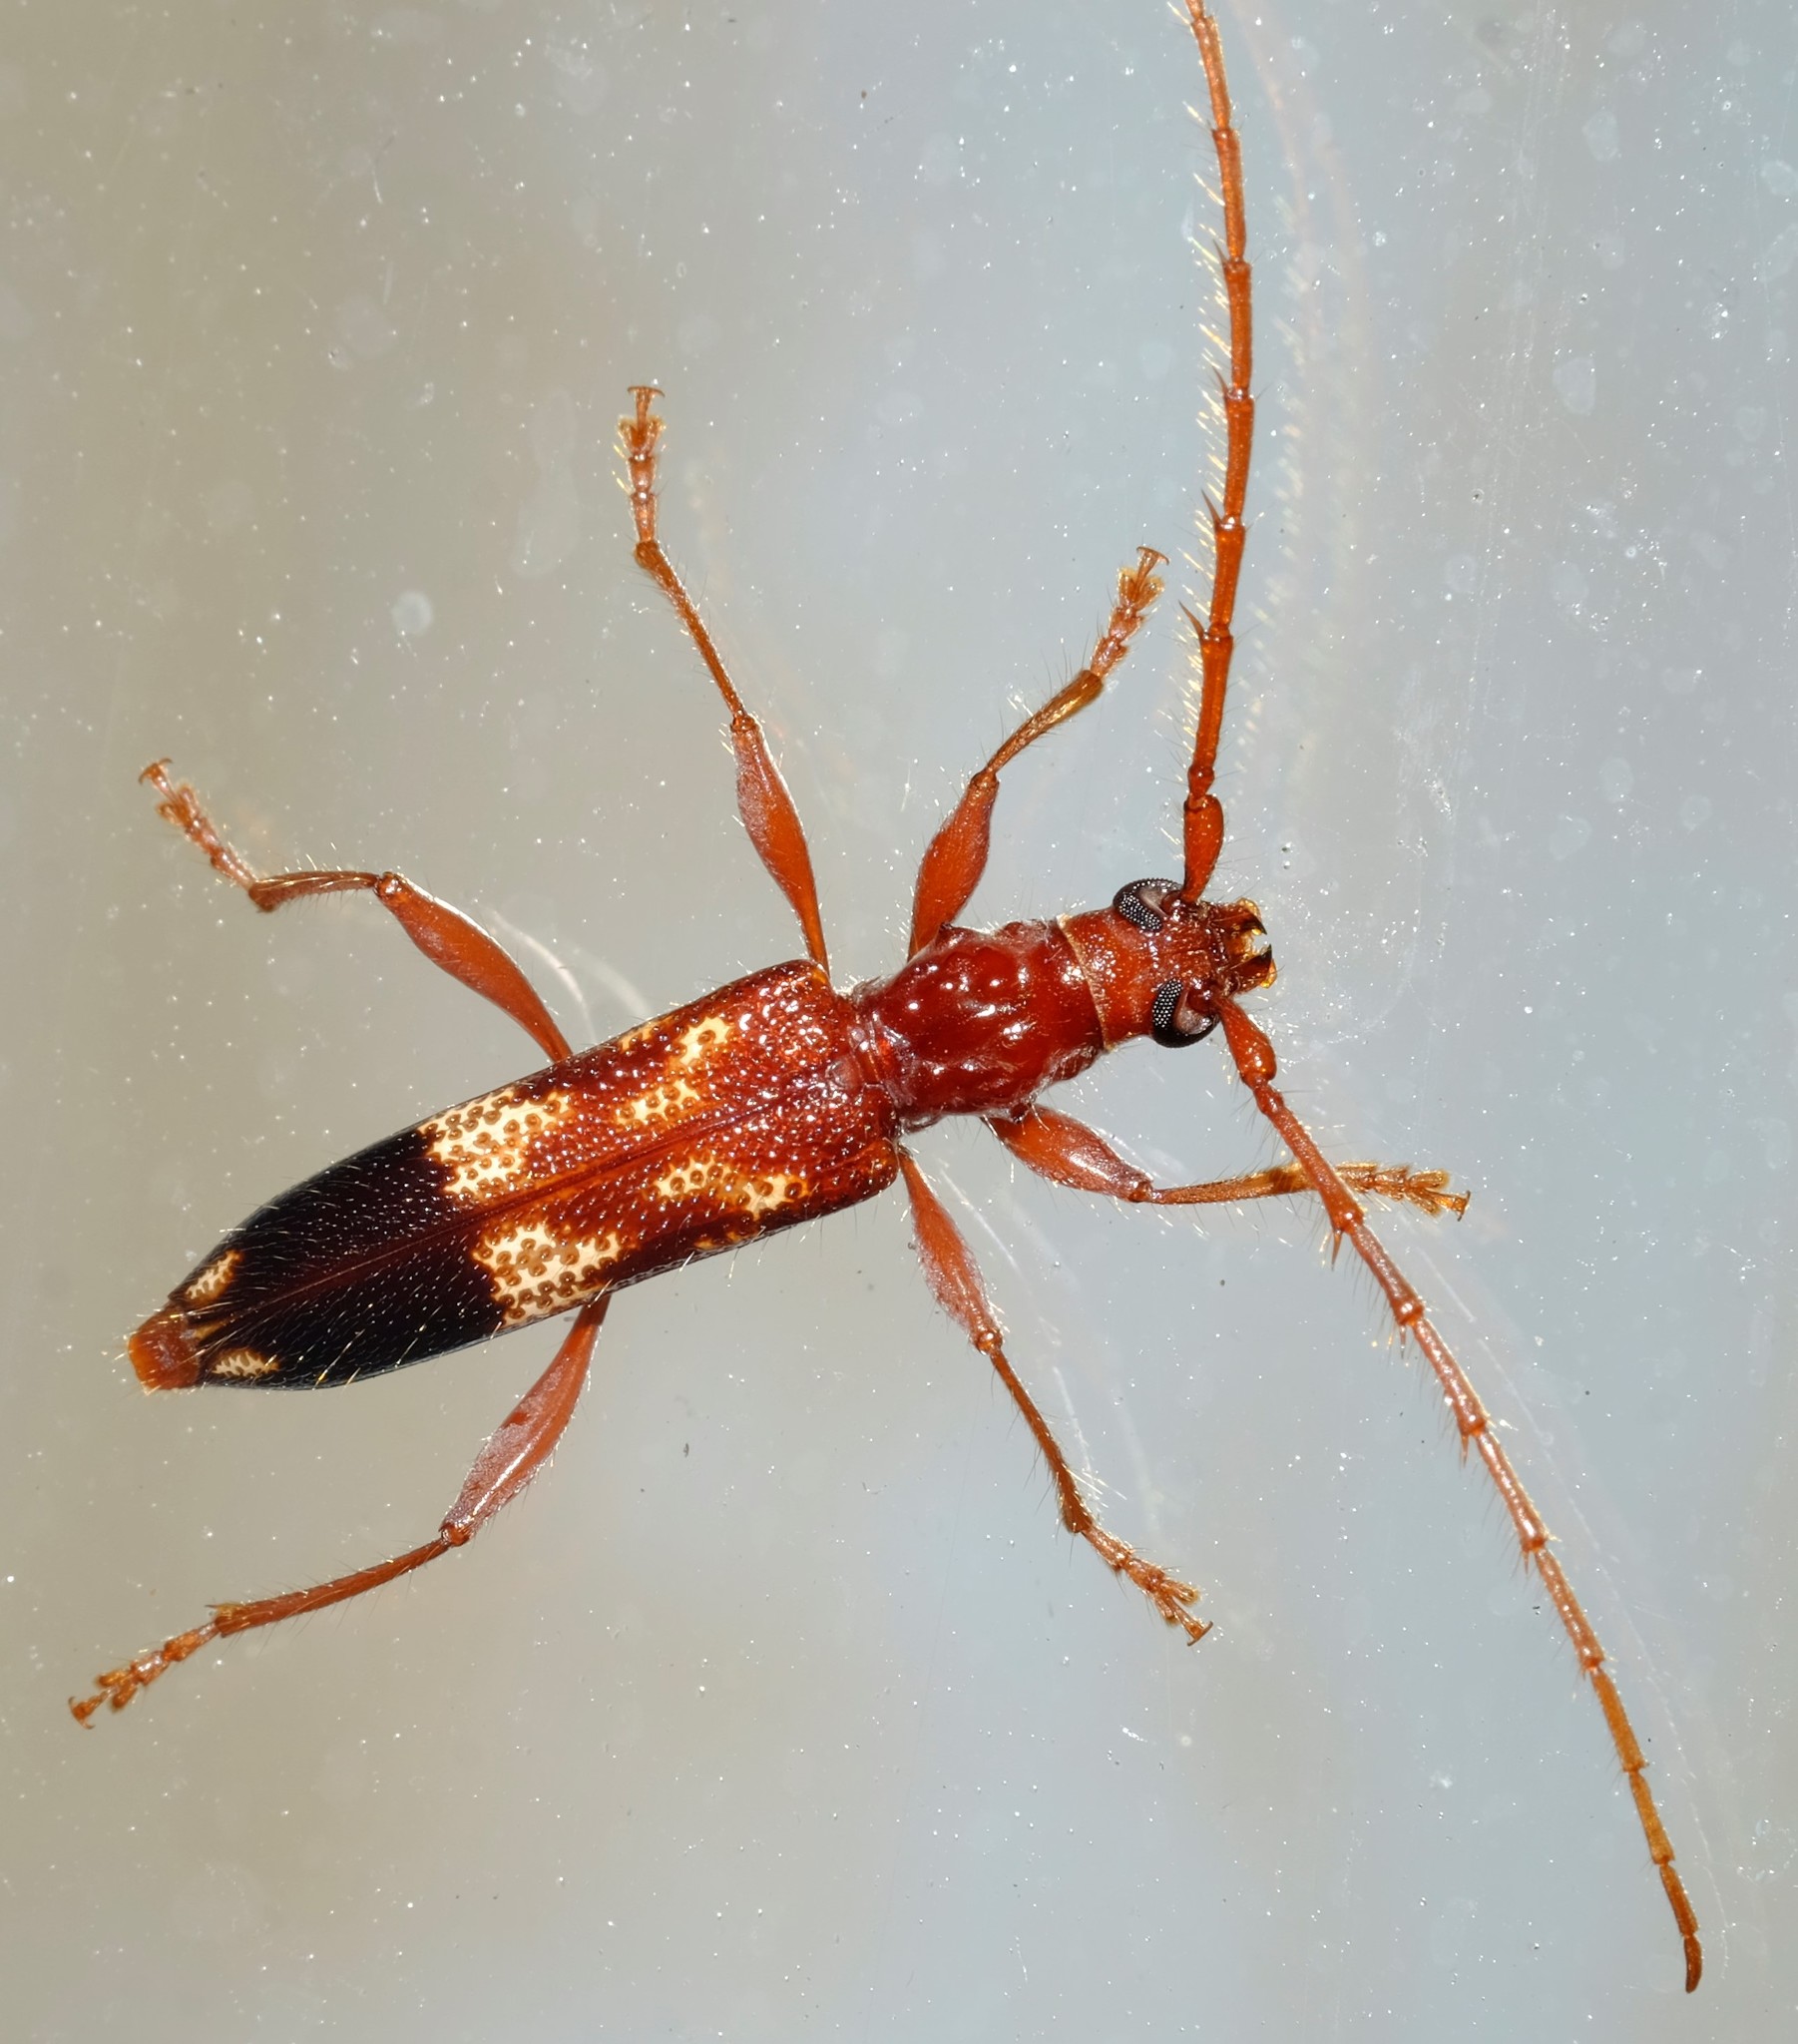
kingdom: Animalia
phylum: Arthropoda
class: Insecta
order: Coleoptera
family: Cerambycidae
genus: Coptocercus
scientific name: Coptocercus abberrans
